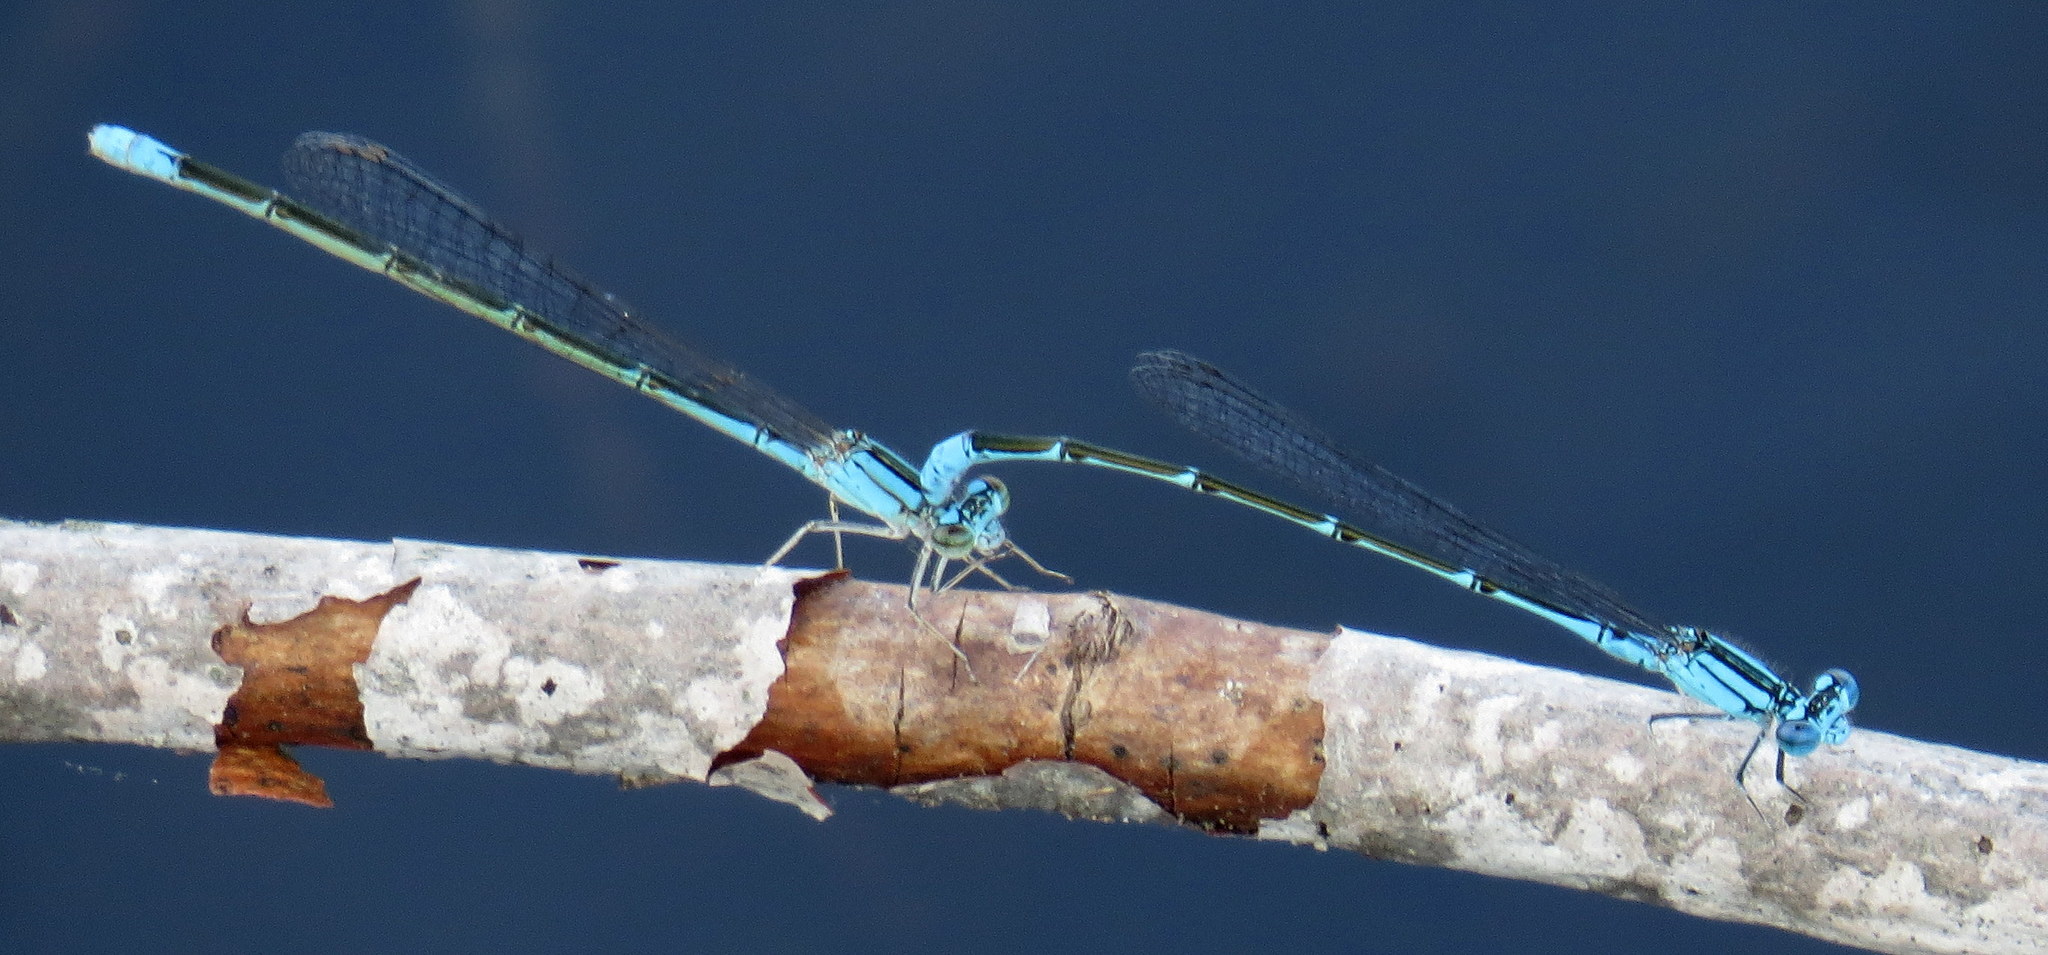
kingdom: Animalia
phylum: Arthropoda
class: Insecta
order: Odonata
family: Coenagrionidae
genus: Enallagma
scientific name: Enallagma traviatum
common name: Slender bluet
